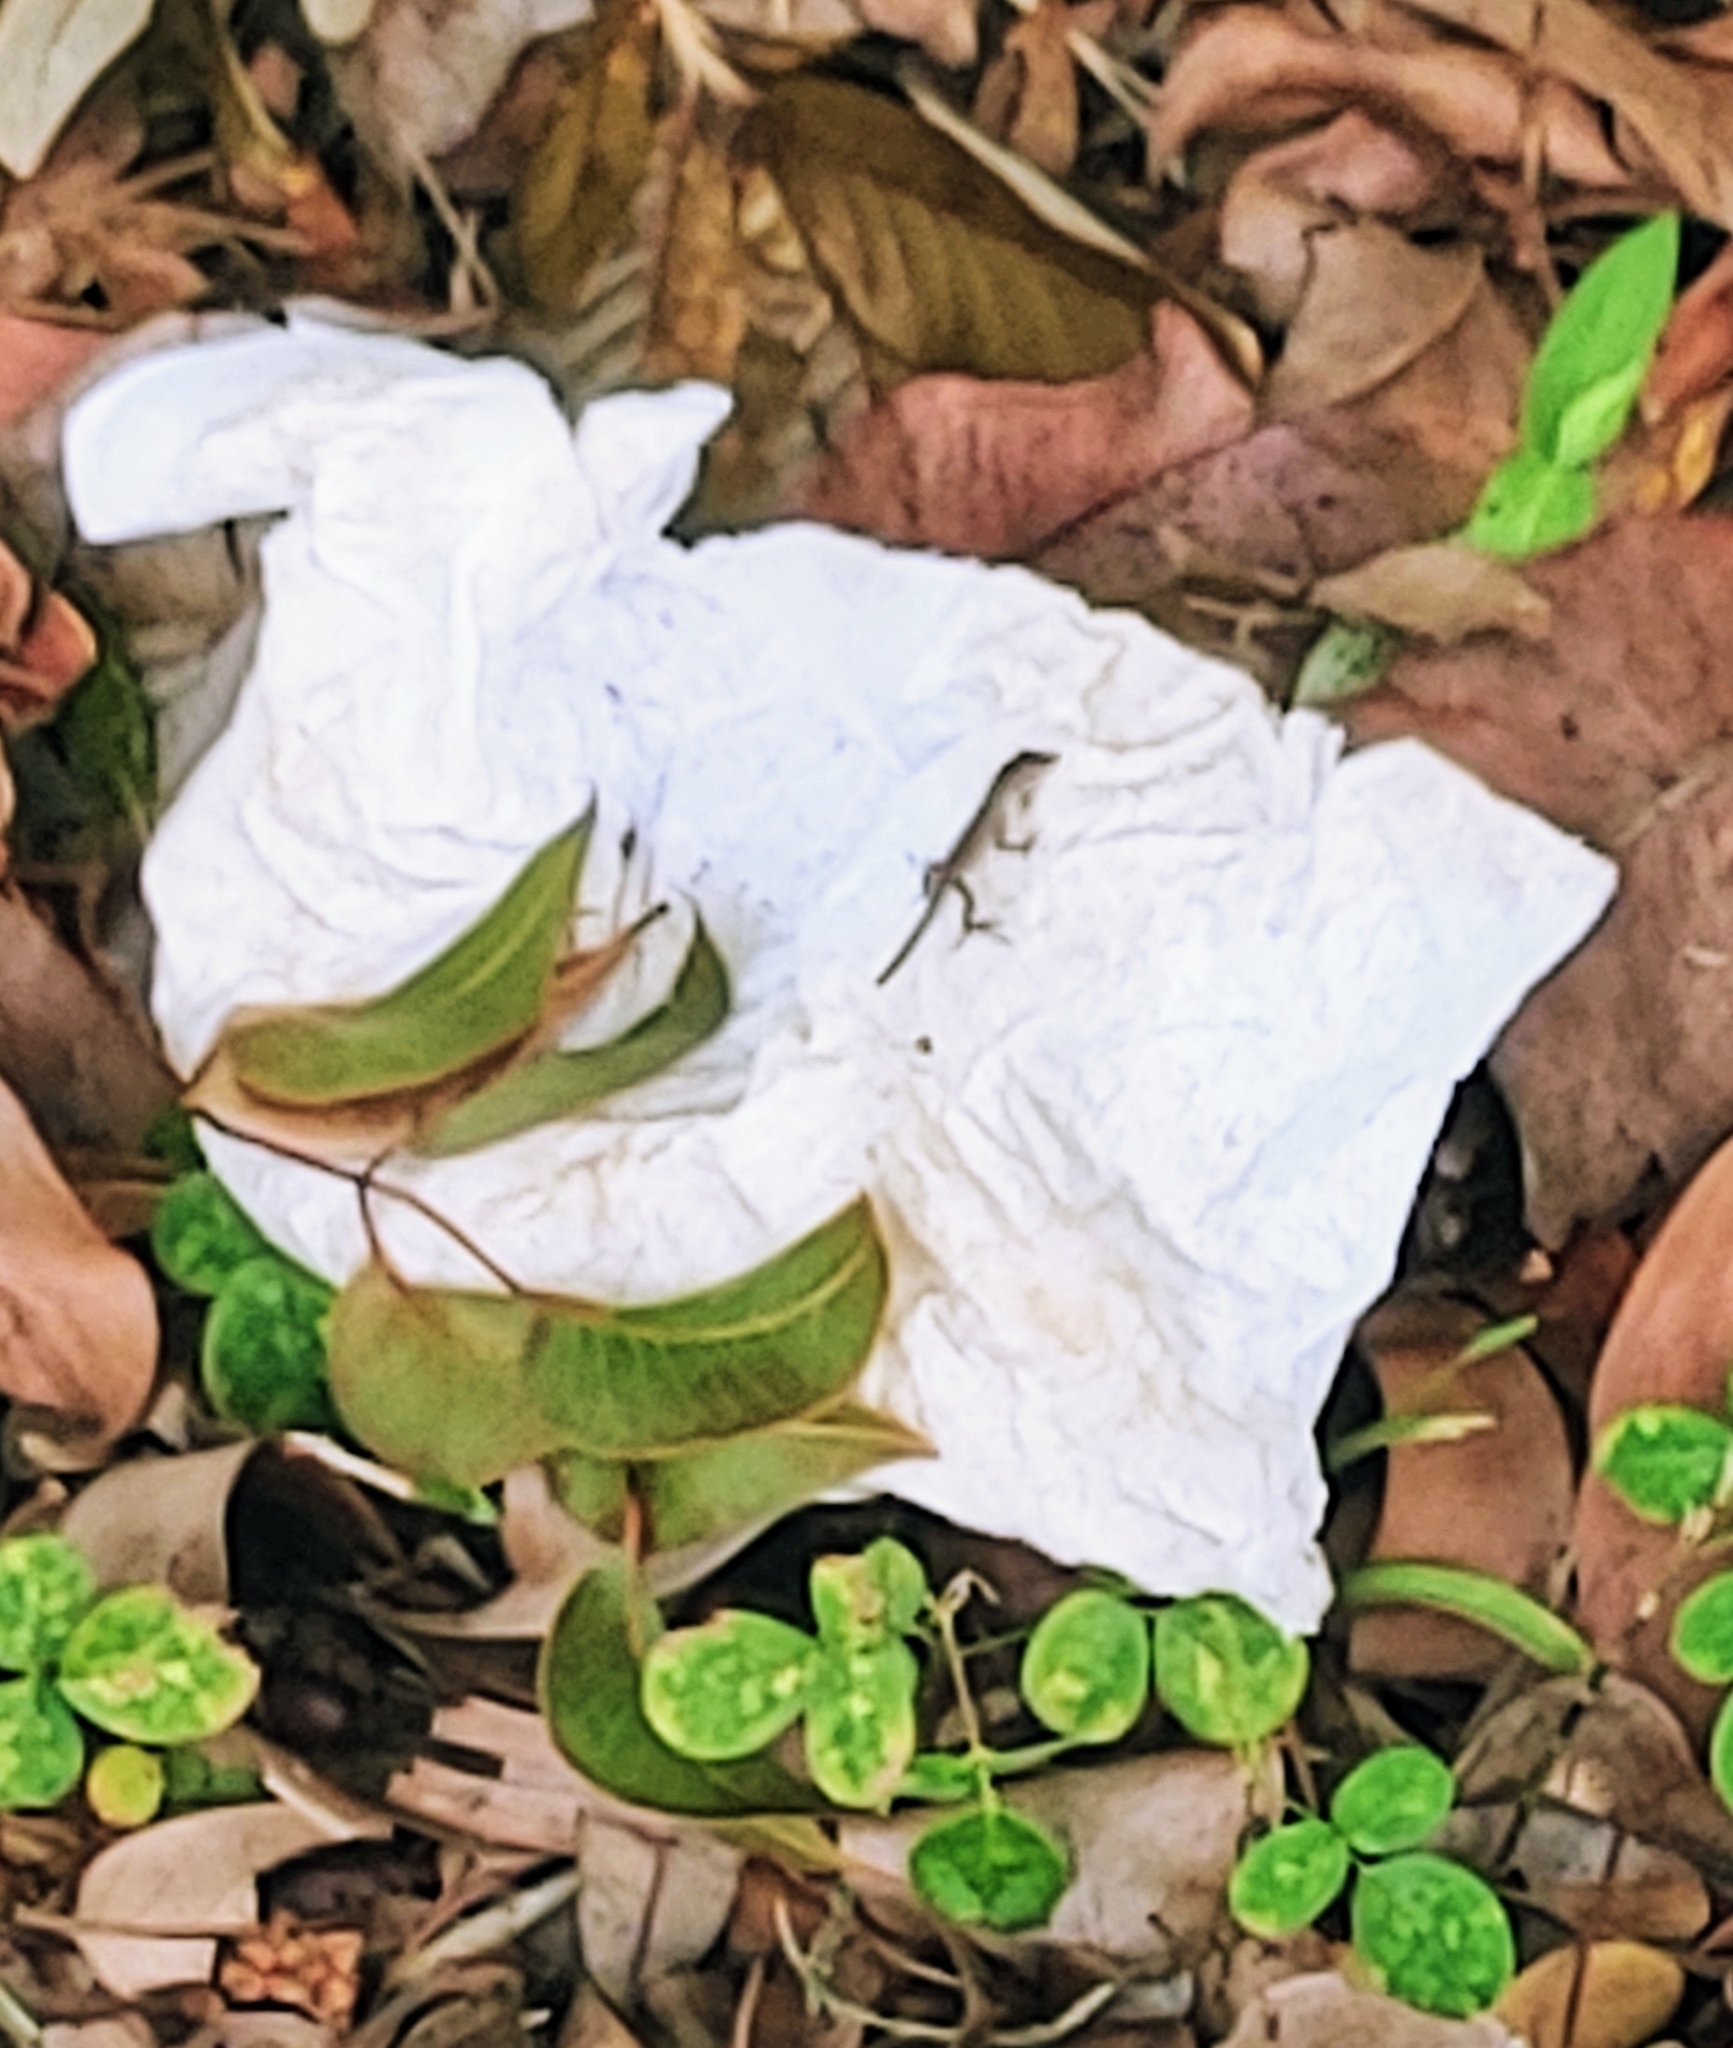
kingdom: Animalia
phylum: Chordata
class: Squamata
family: Dactyloidae
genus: Anolis
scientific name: Anolis sagrei
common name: Brown anole
